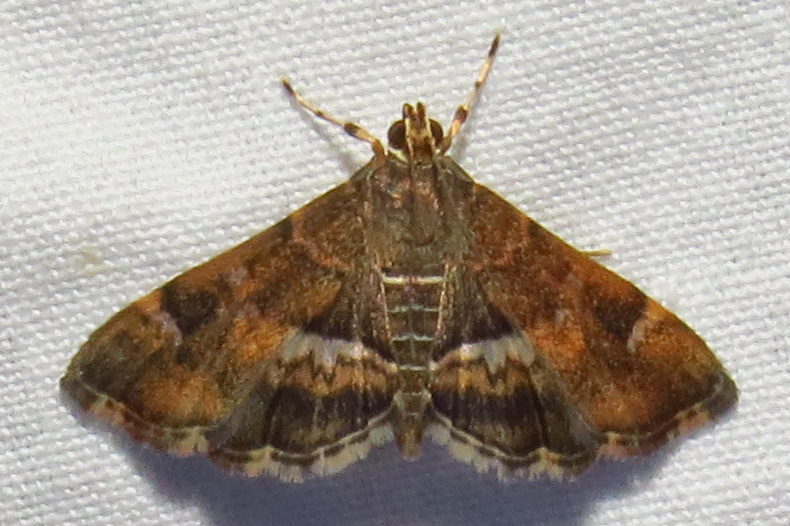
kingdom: Animalia
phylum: Arthropoda
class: Insecta
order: Lepidoptera
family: Crambidae
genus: Hymenia
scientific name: Hymenia perspectalis
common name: Spotted beet webworm
